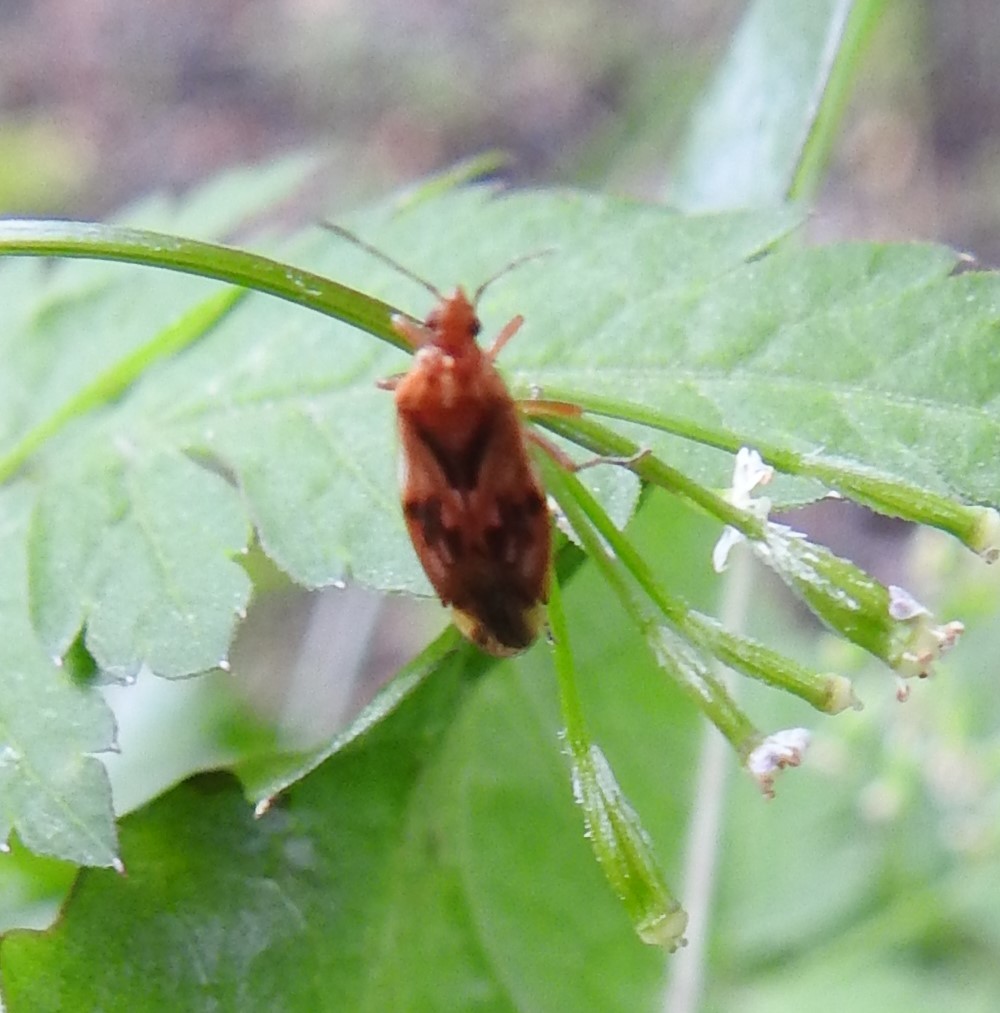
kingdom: Animalia
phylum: Arthropoda
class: Insecta
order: Hemiptera
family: Idiostolidae
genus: Idiostolus
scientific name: Idiostolus insularis
